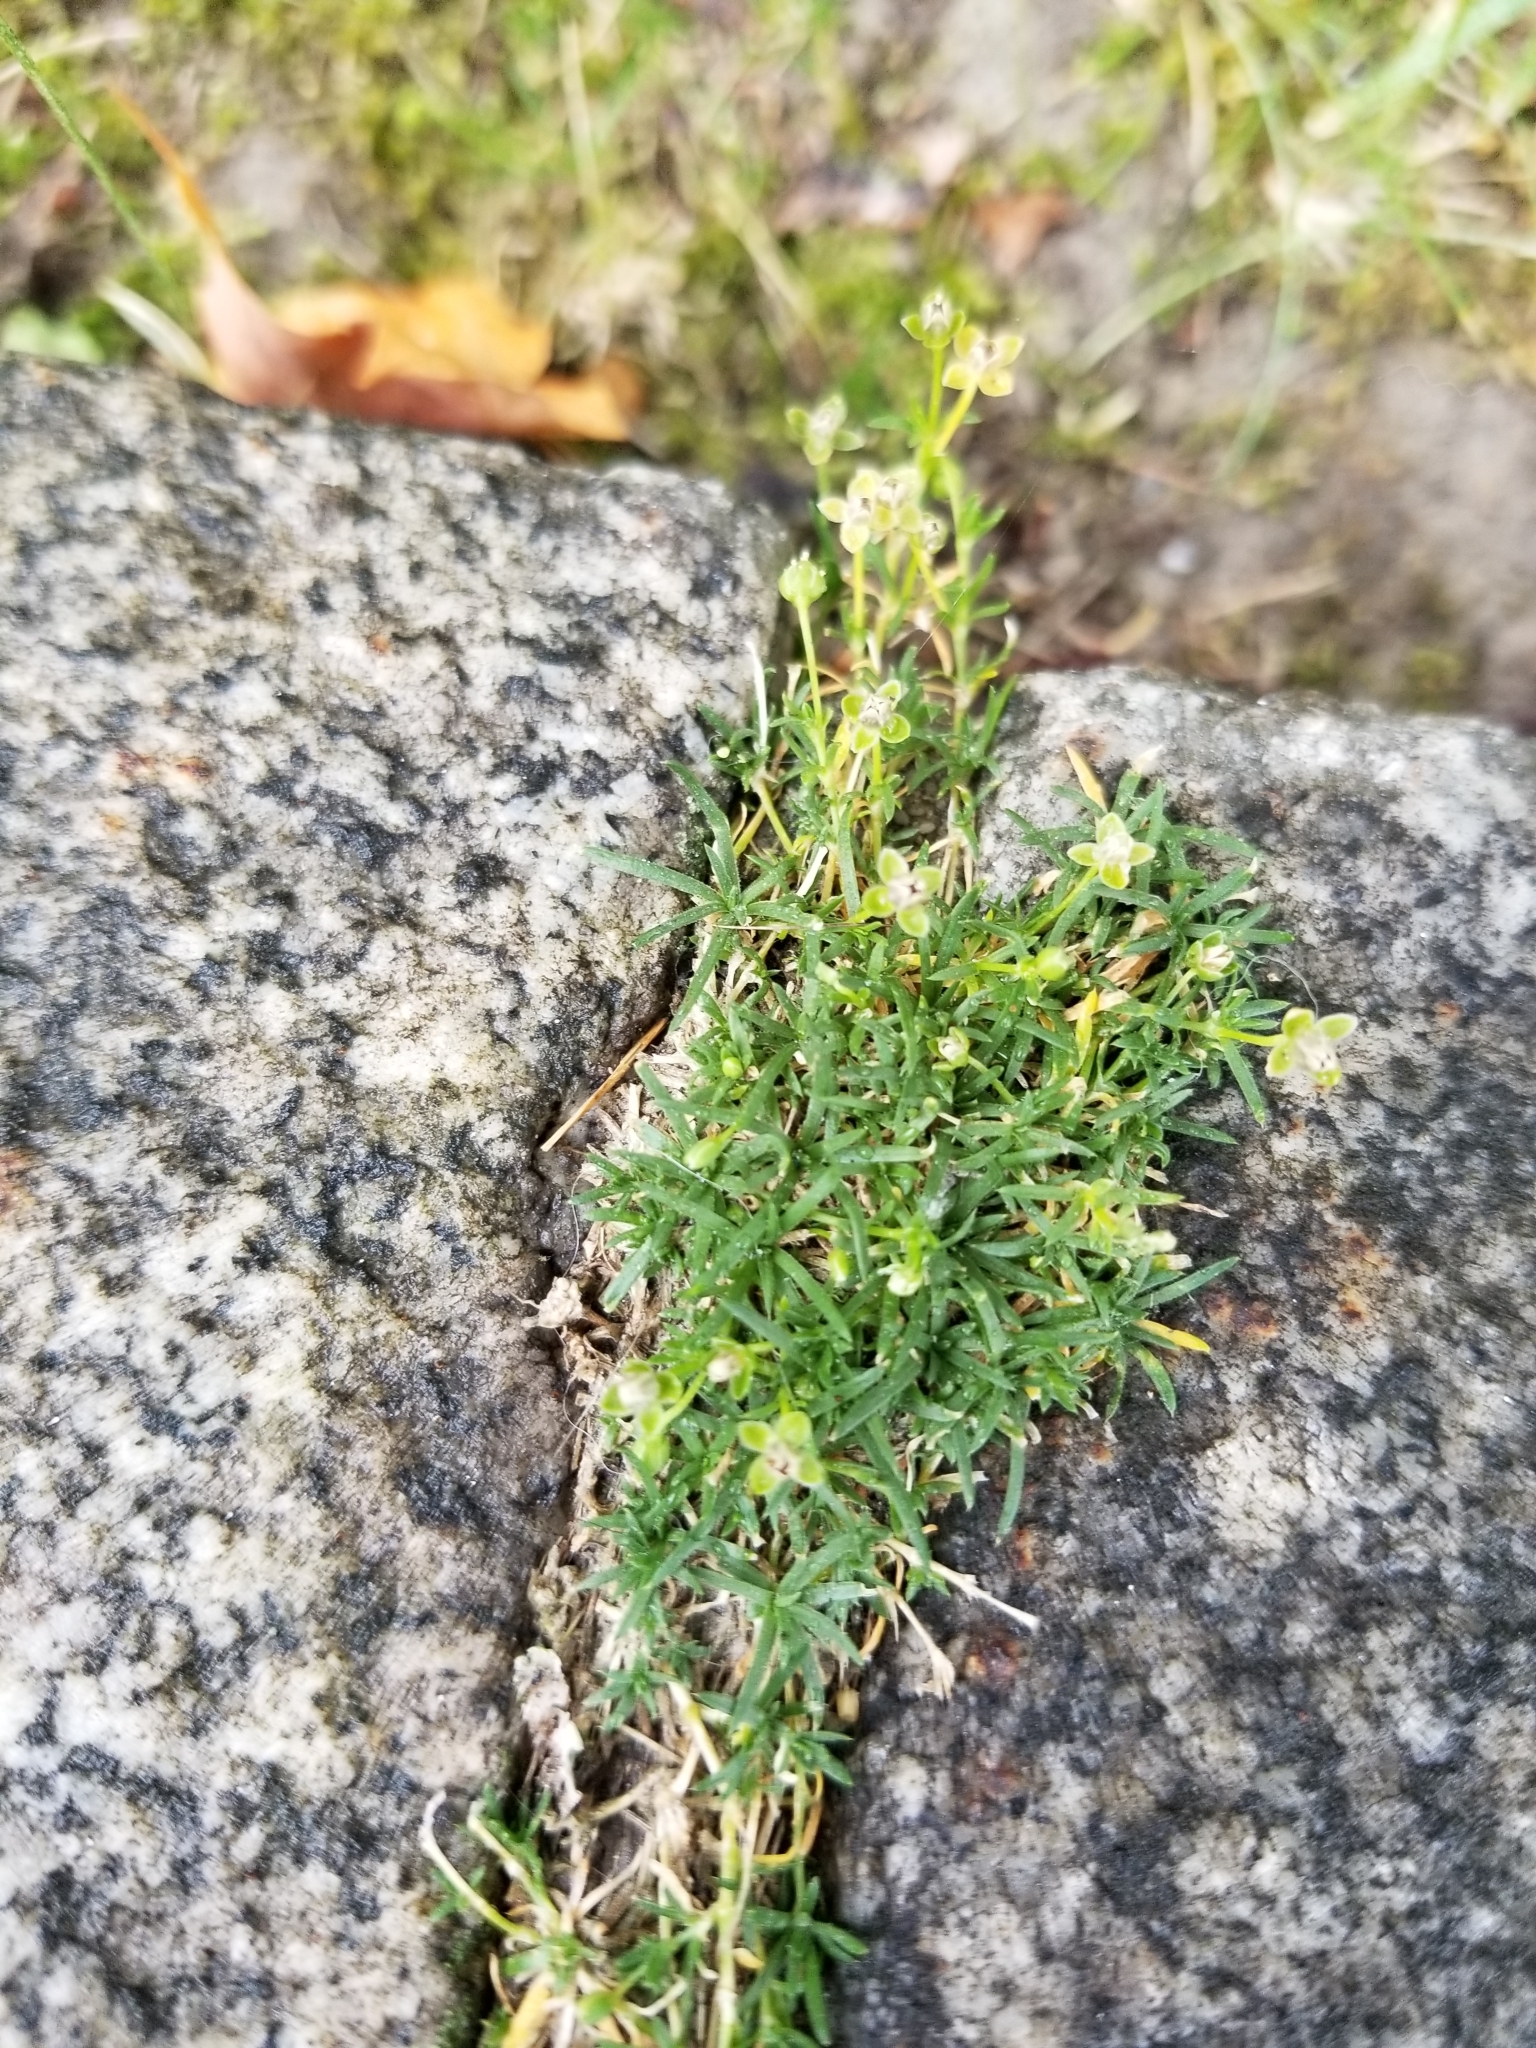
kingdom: Plantae
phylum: Tracheophyta
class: Magnoliopsida
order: Caryophyllales
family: Caryophyllaceae
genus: Sagina
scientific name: Sagina procumbens
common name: Procumbent pearlwort
